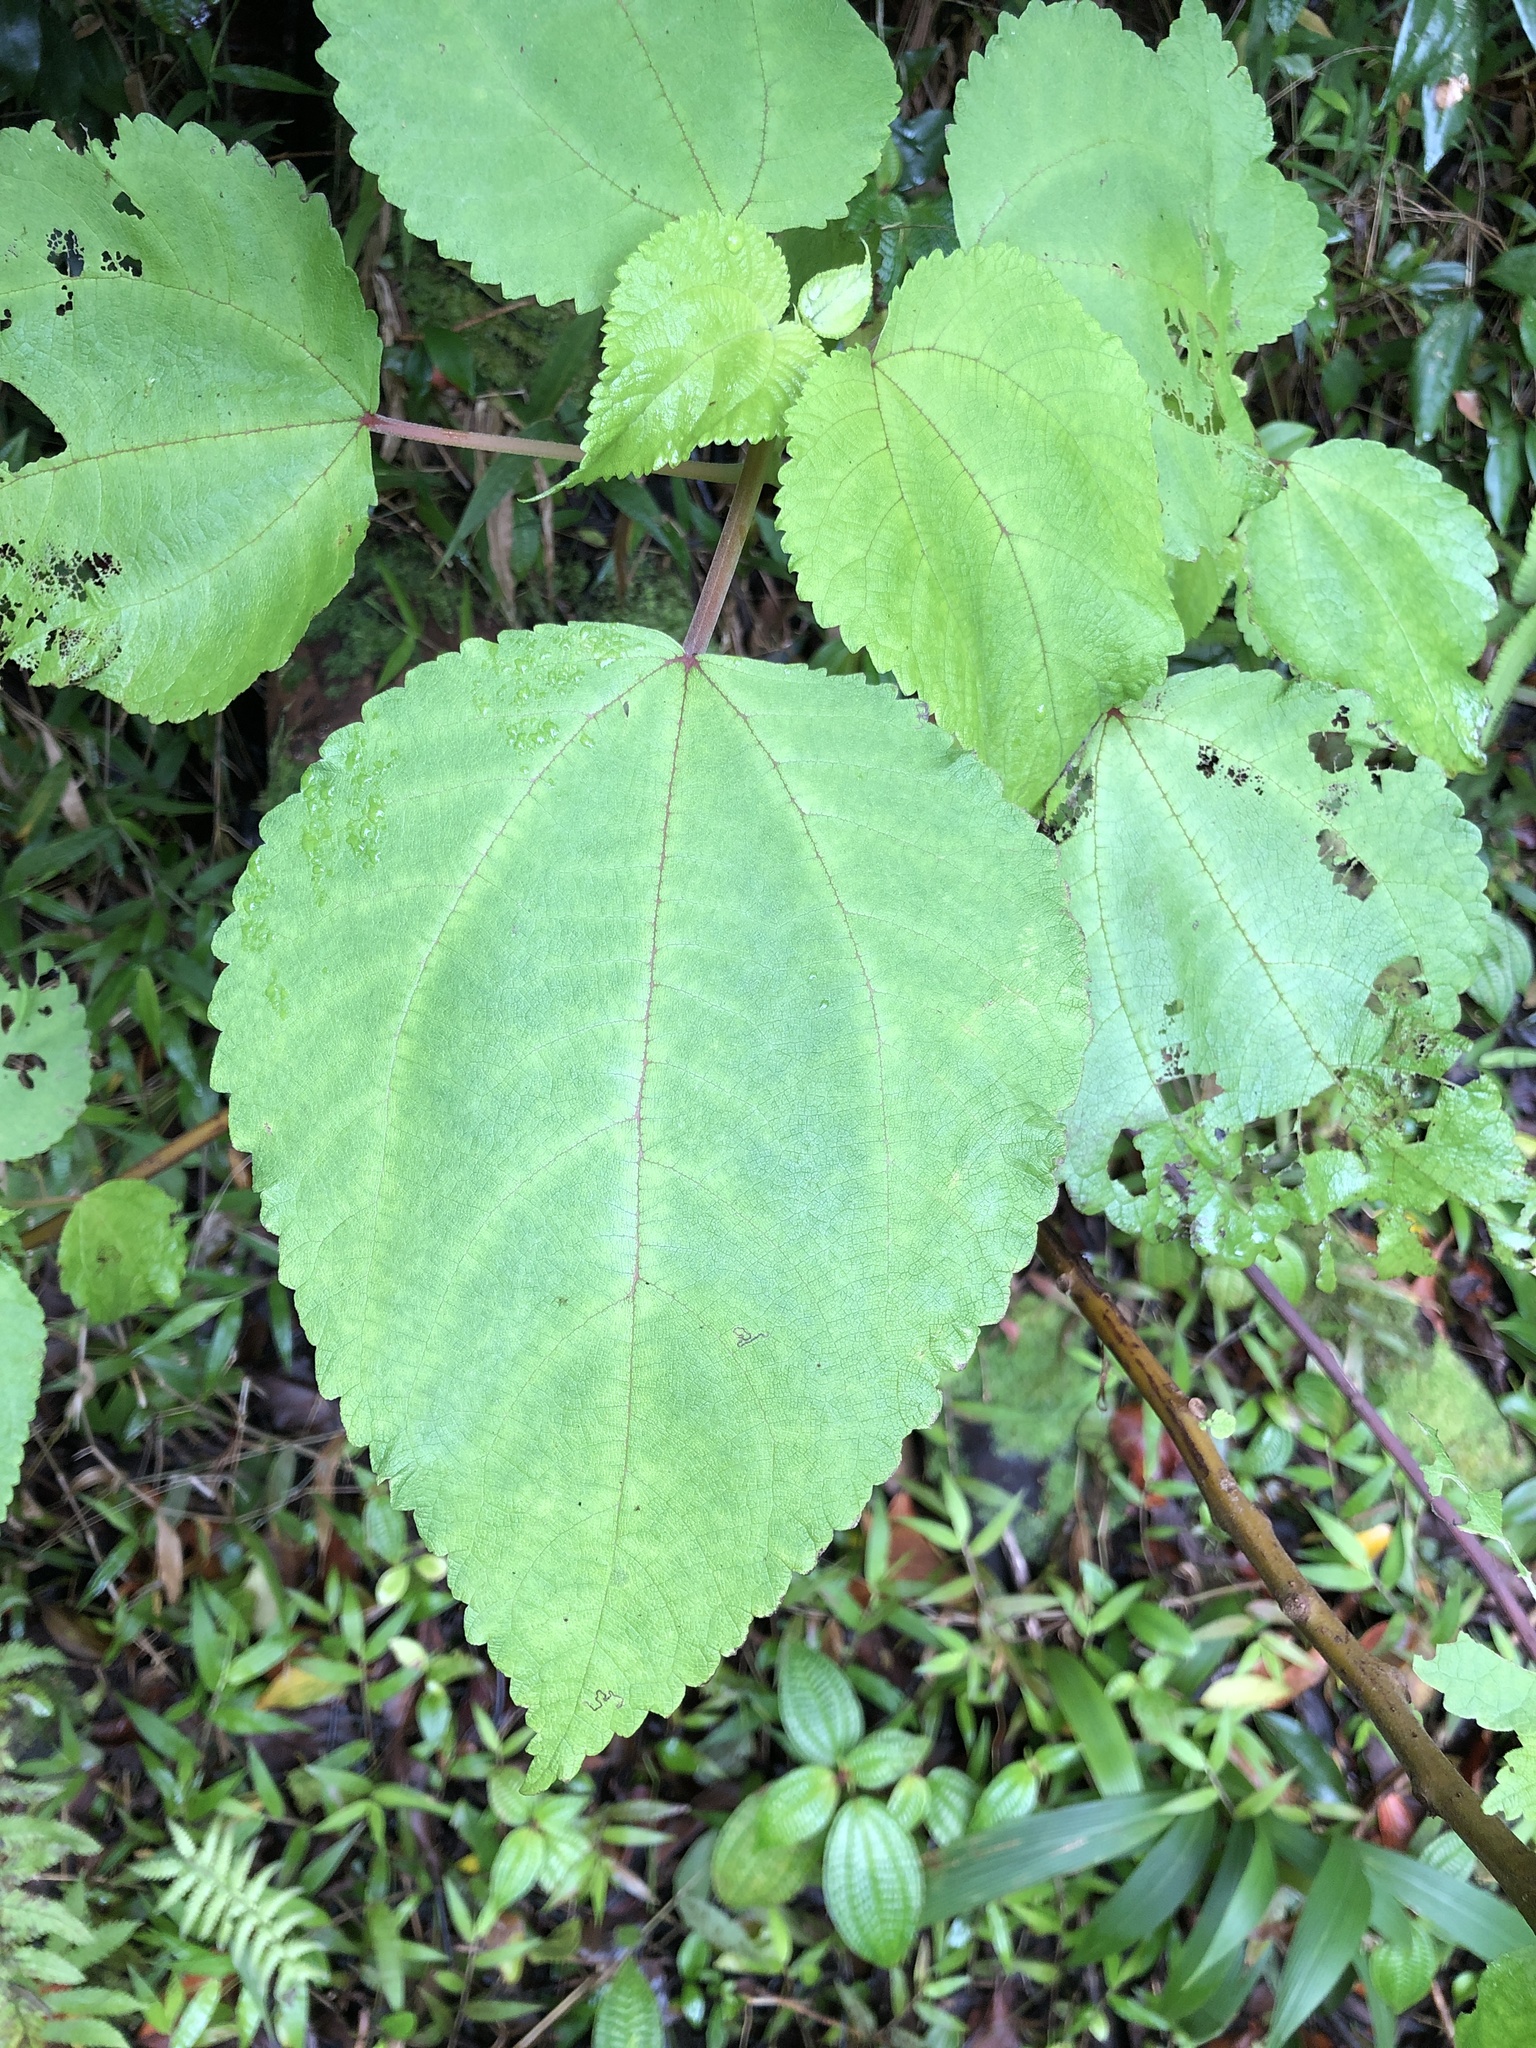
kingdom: Plantae
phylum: Tracheophyta
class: Magnoliopsida
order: Rosales
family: Urticaceae
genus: Pipturus
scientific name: Pipturus albidus
